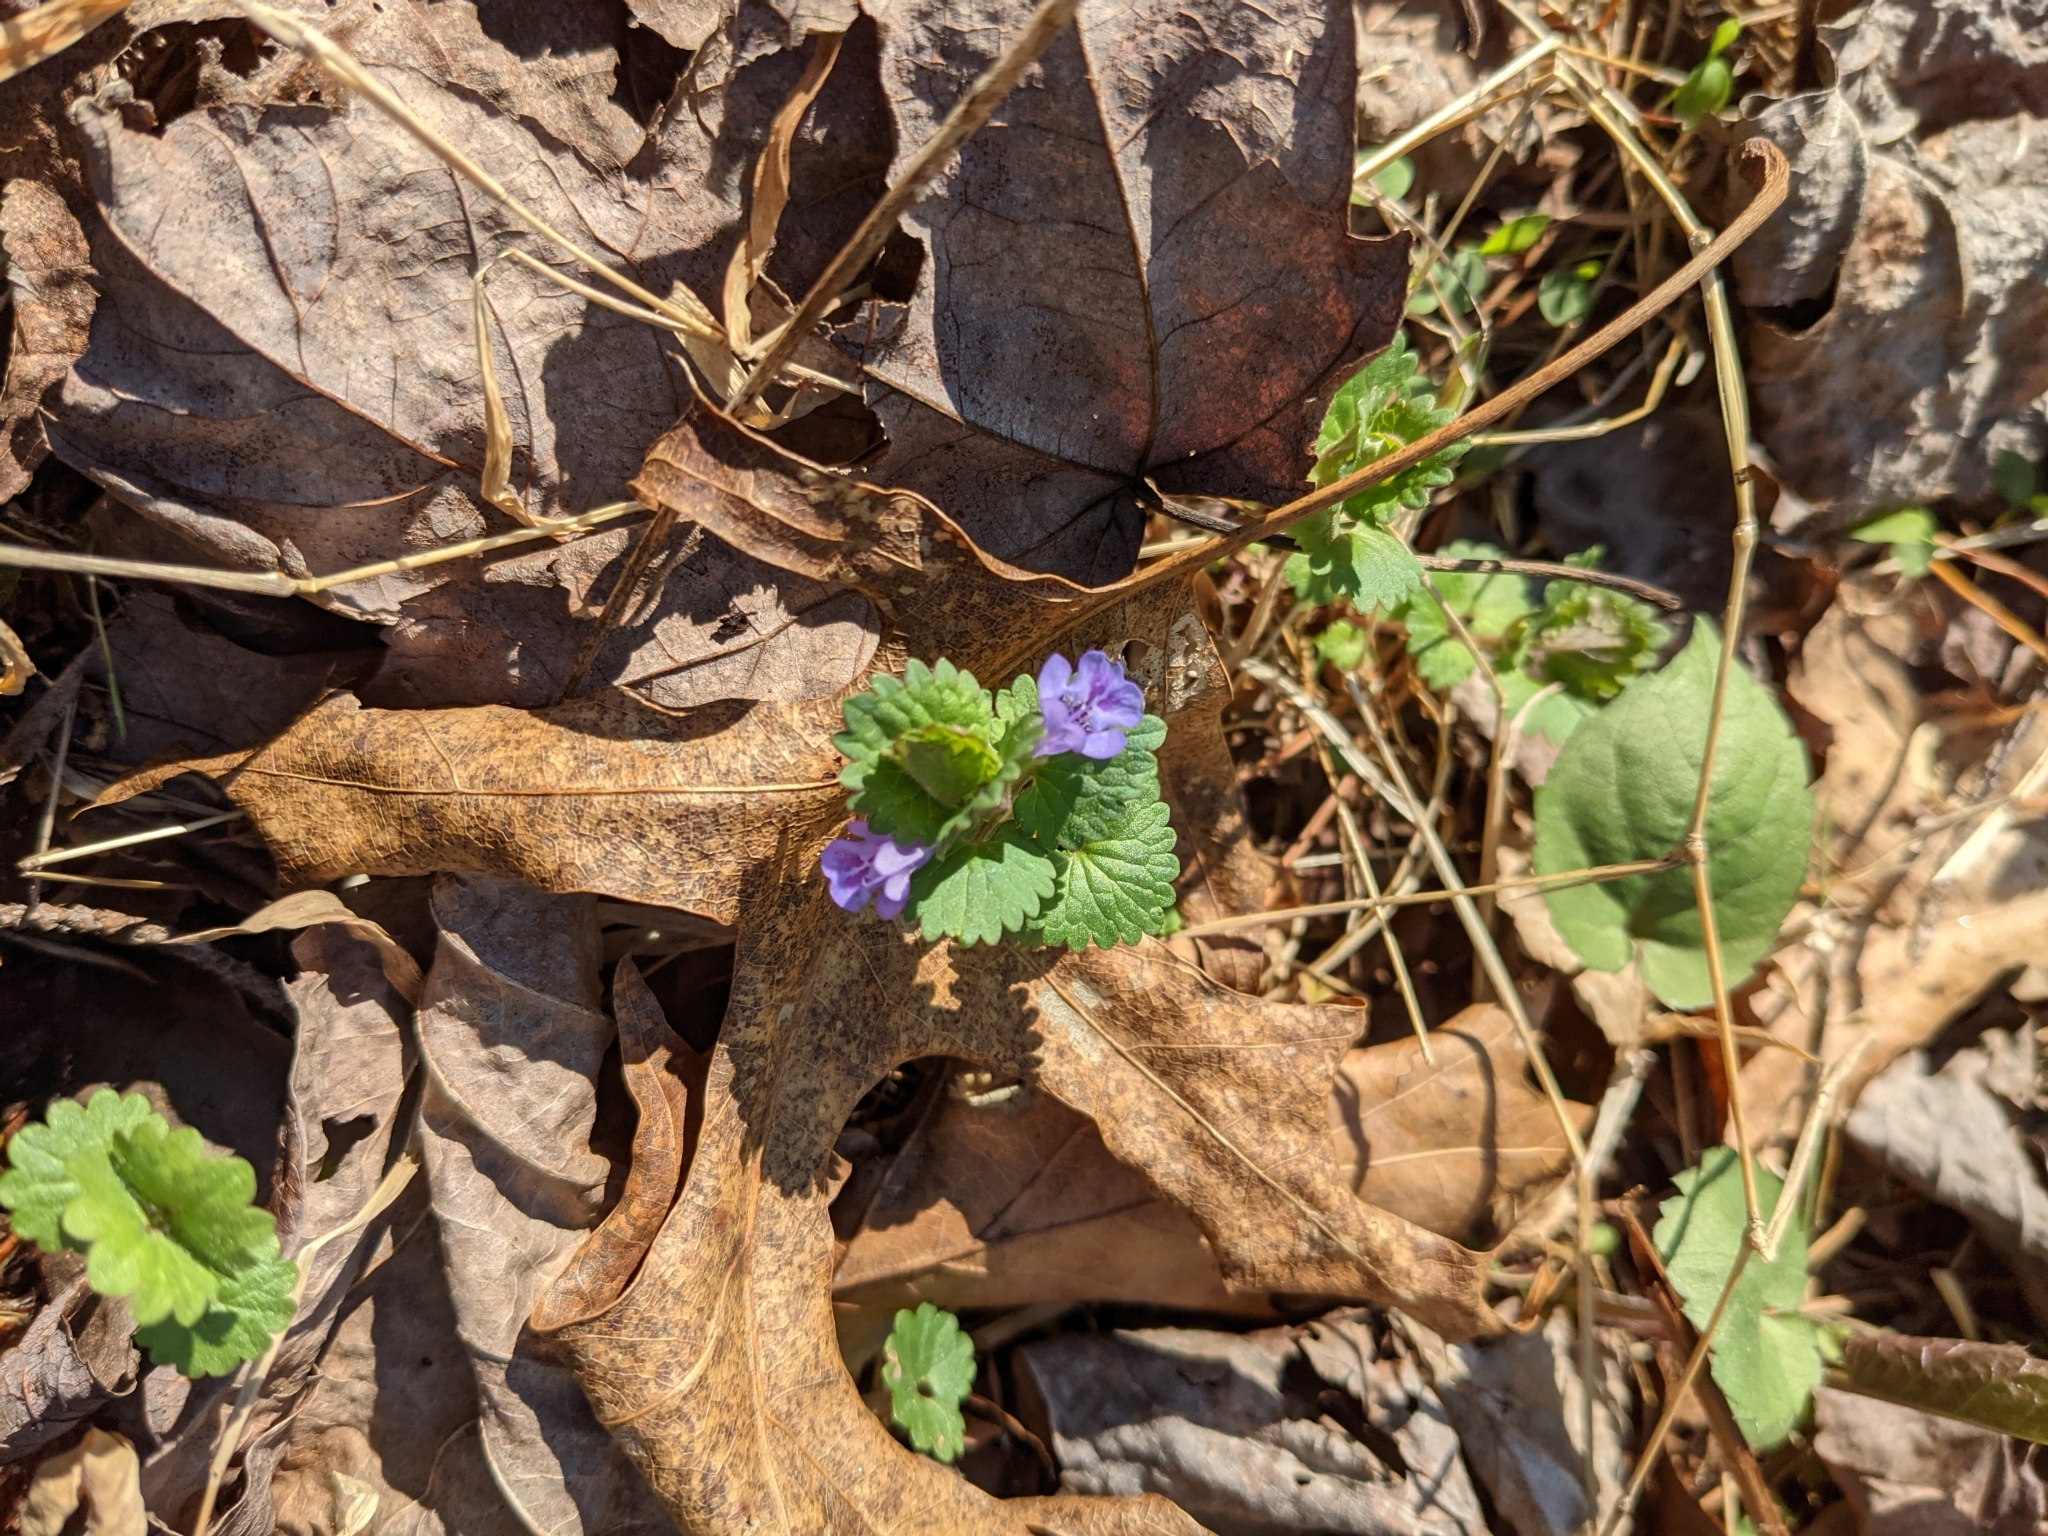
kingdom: Plantae
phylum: Tracheophyta
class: Magnoliopsida
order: Lamiales
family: Lamiaceae
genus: Glechoma
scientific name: Glechoma hederacea
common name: Ground ivy
